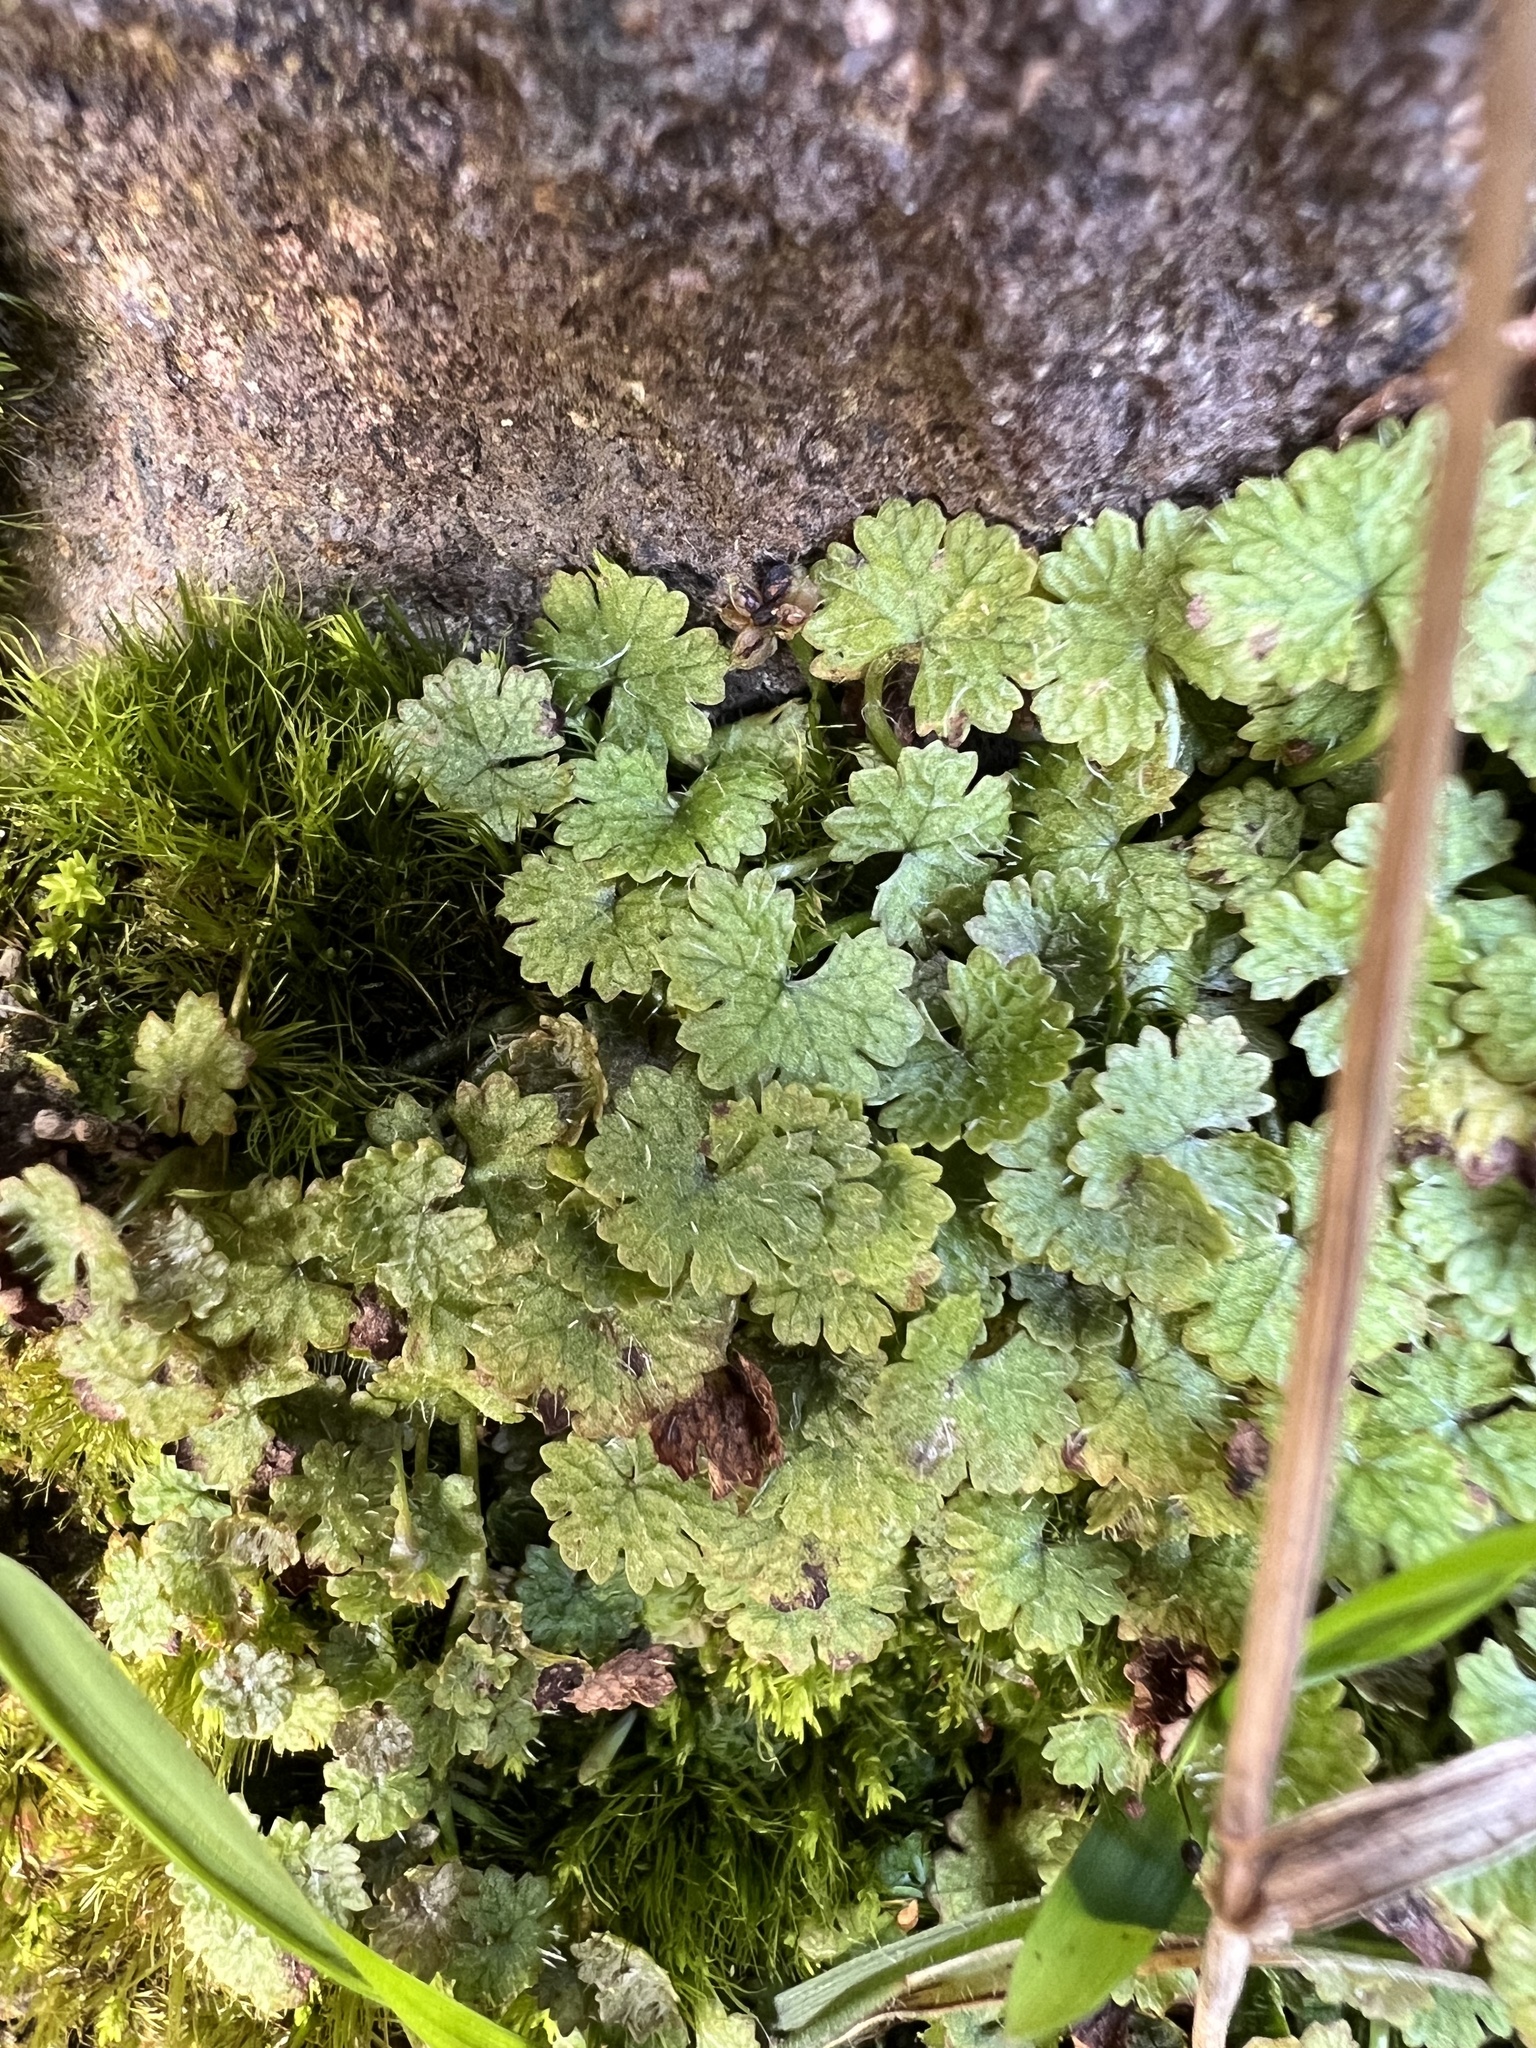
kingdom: Plantae
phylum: Tracheophyta
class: Magnoliopsida
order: Apiales
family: Araliaceae
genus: Hydrocotyle
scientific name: Hydrocotyle moschata
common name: Hairy pennywort
